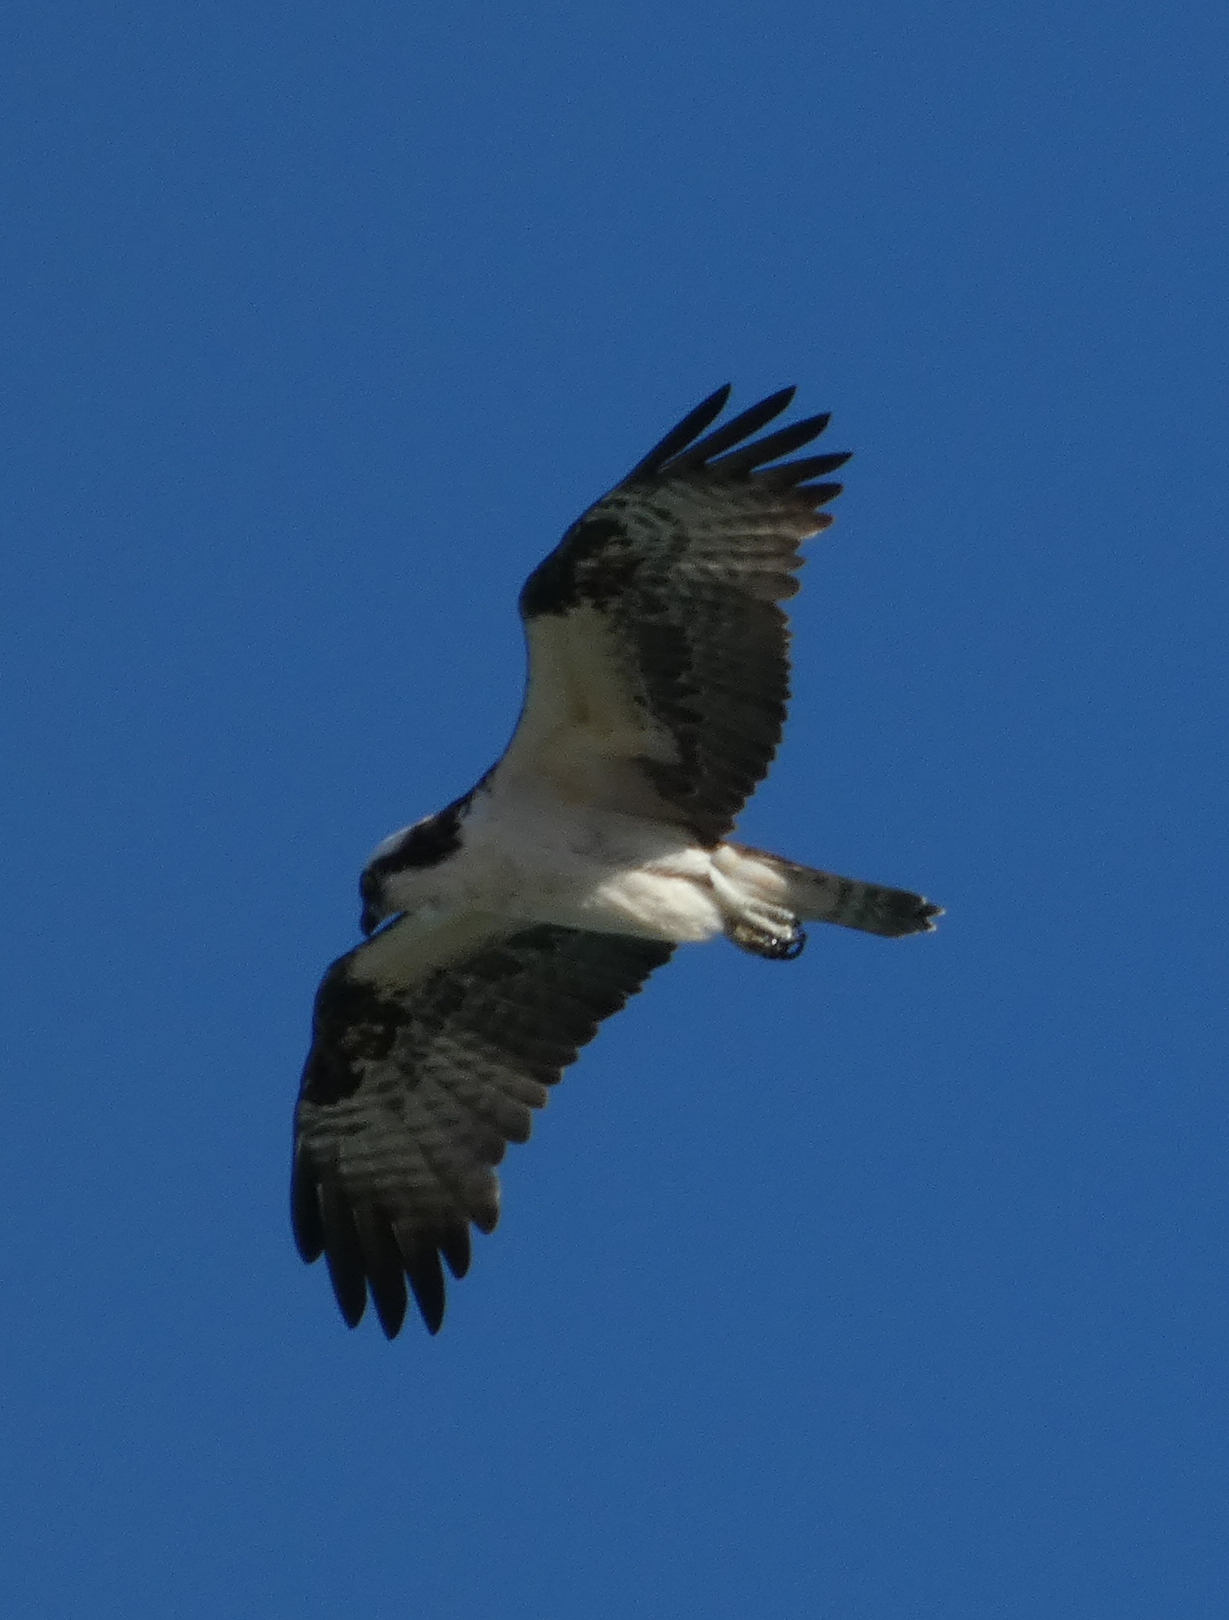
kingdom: Animalia
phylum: Chordata
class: Aves
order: Accipitriformes
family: Pandionidae
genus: Pandion
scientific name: Pandion haliaetus
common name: Osprey
